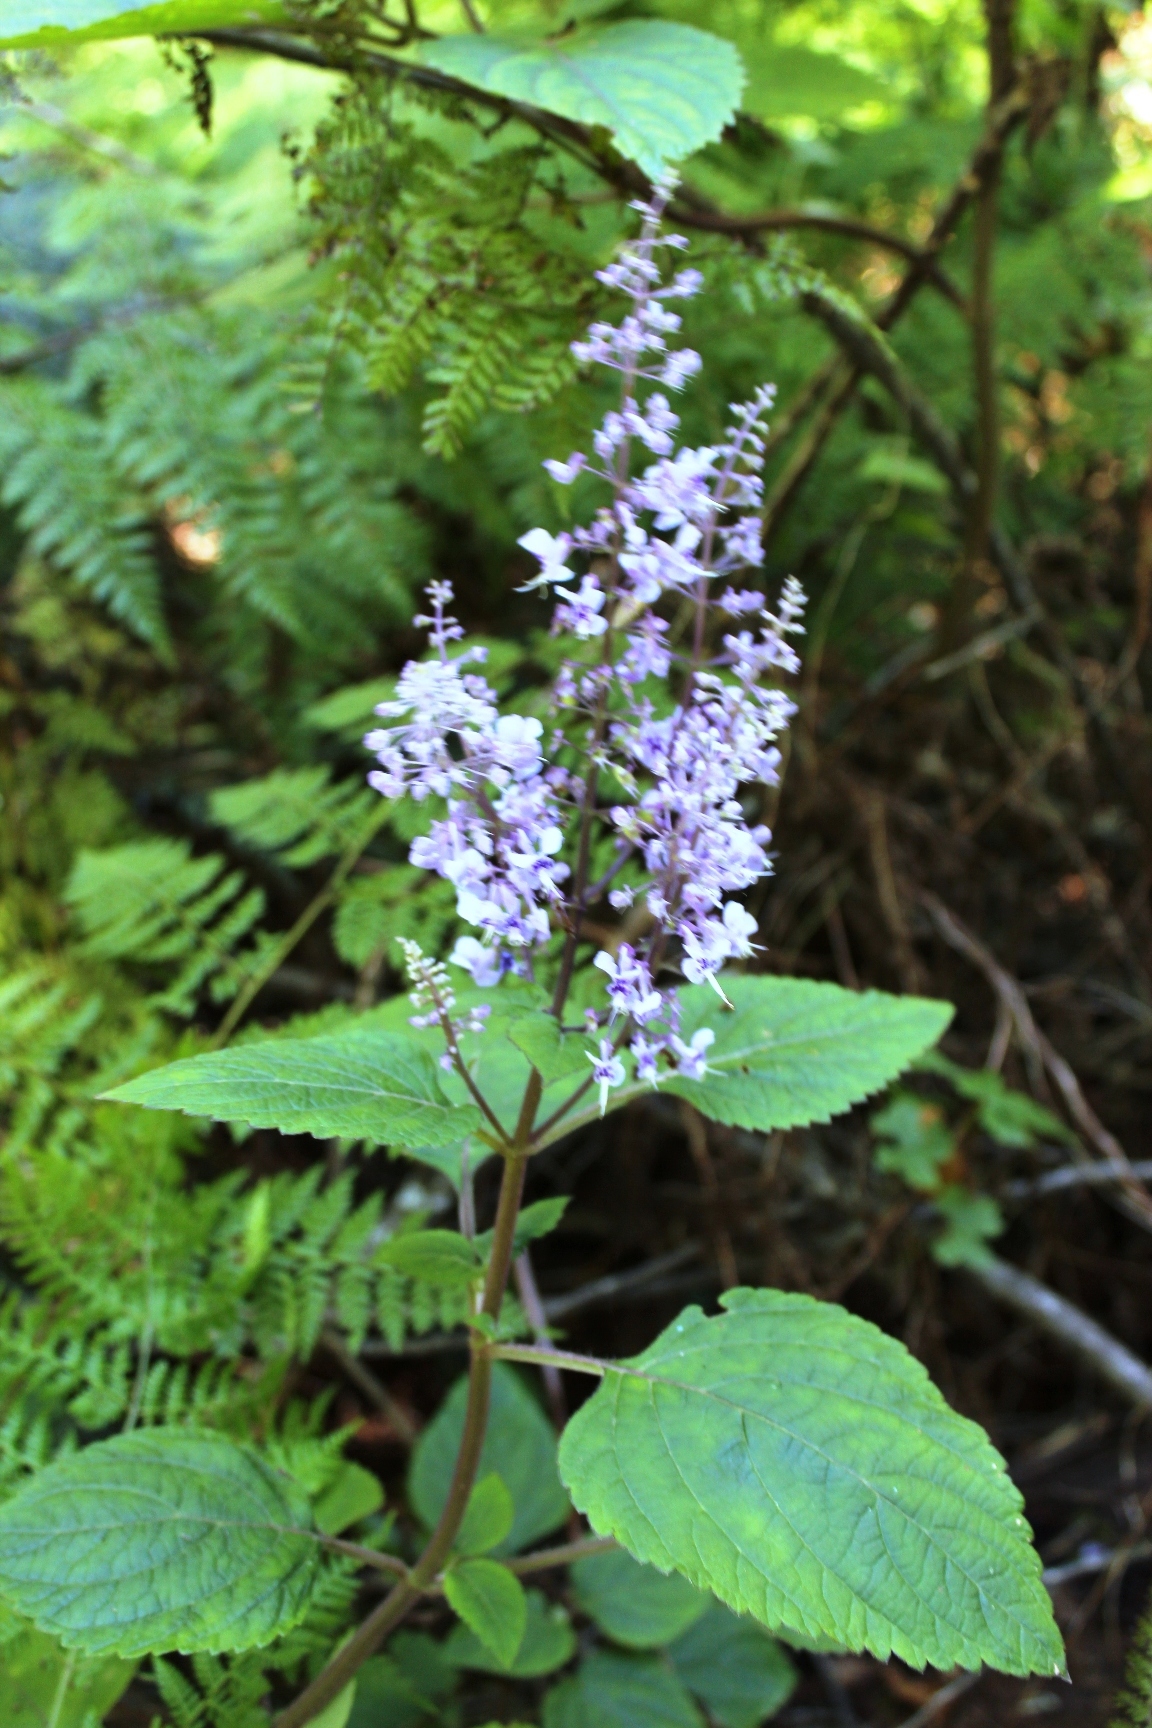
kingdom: Plantae
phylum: Tracheophyta
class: Magnoliopsida
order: Lamiales
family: Lamiaceae
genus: Plectranthus
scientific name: Plectranthus fruticosus
